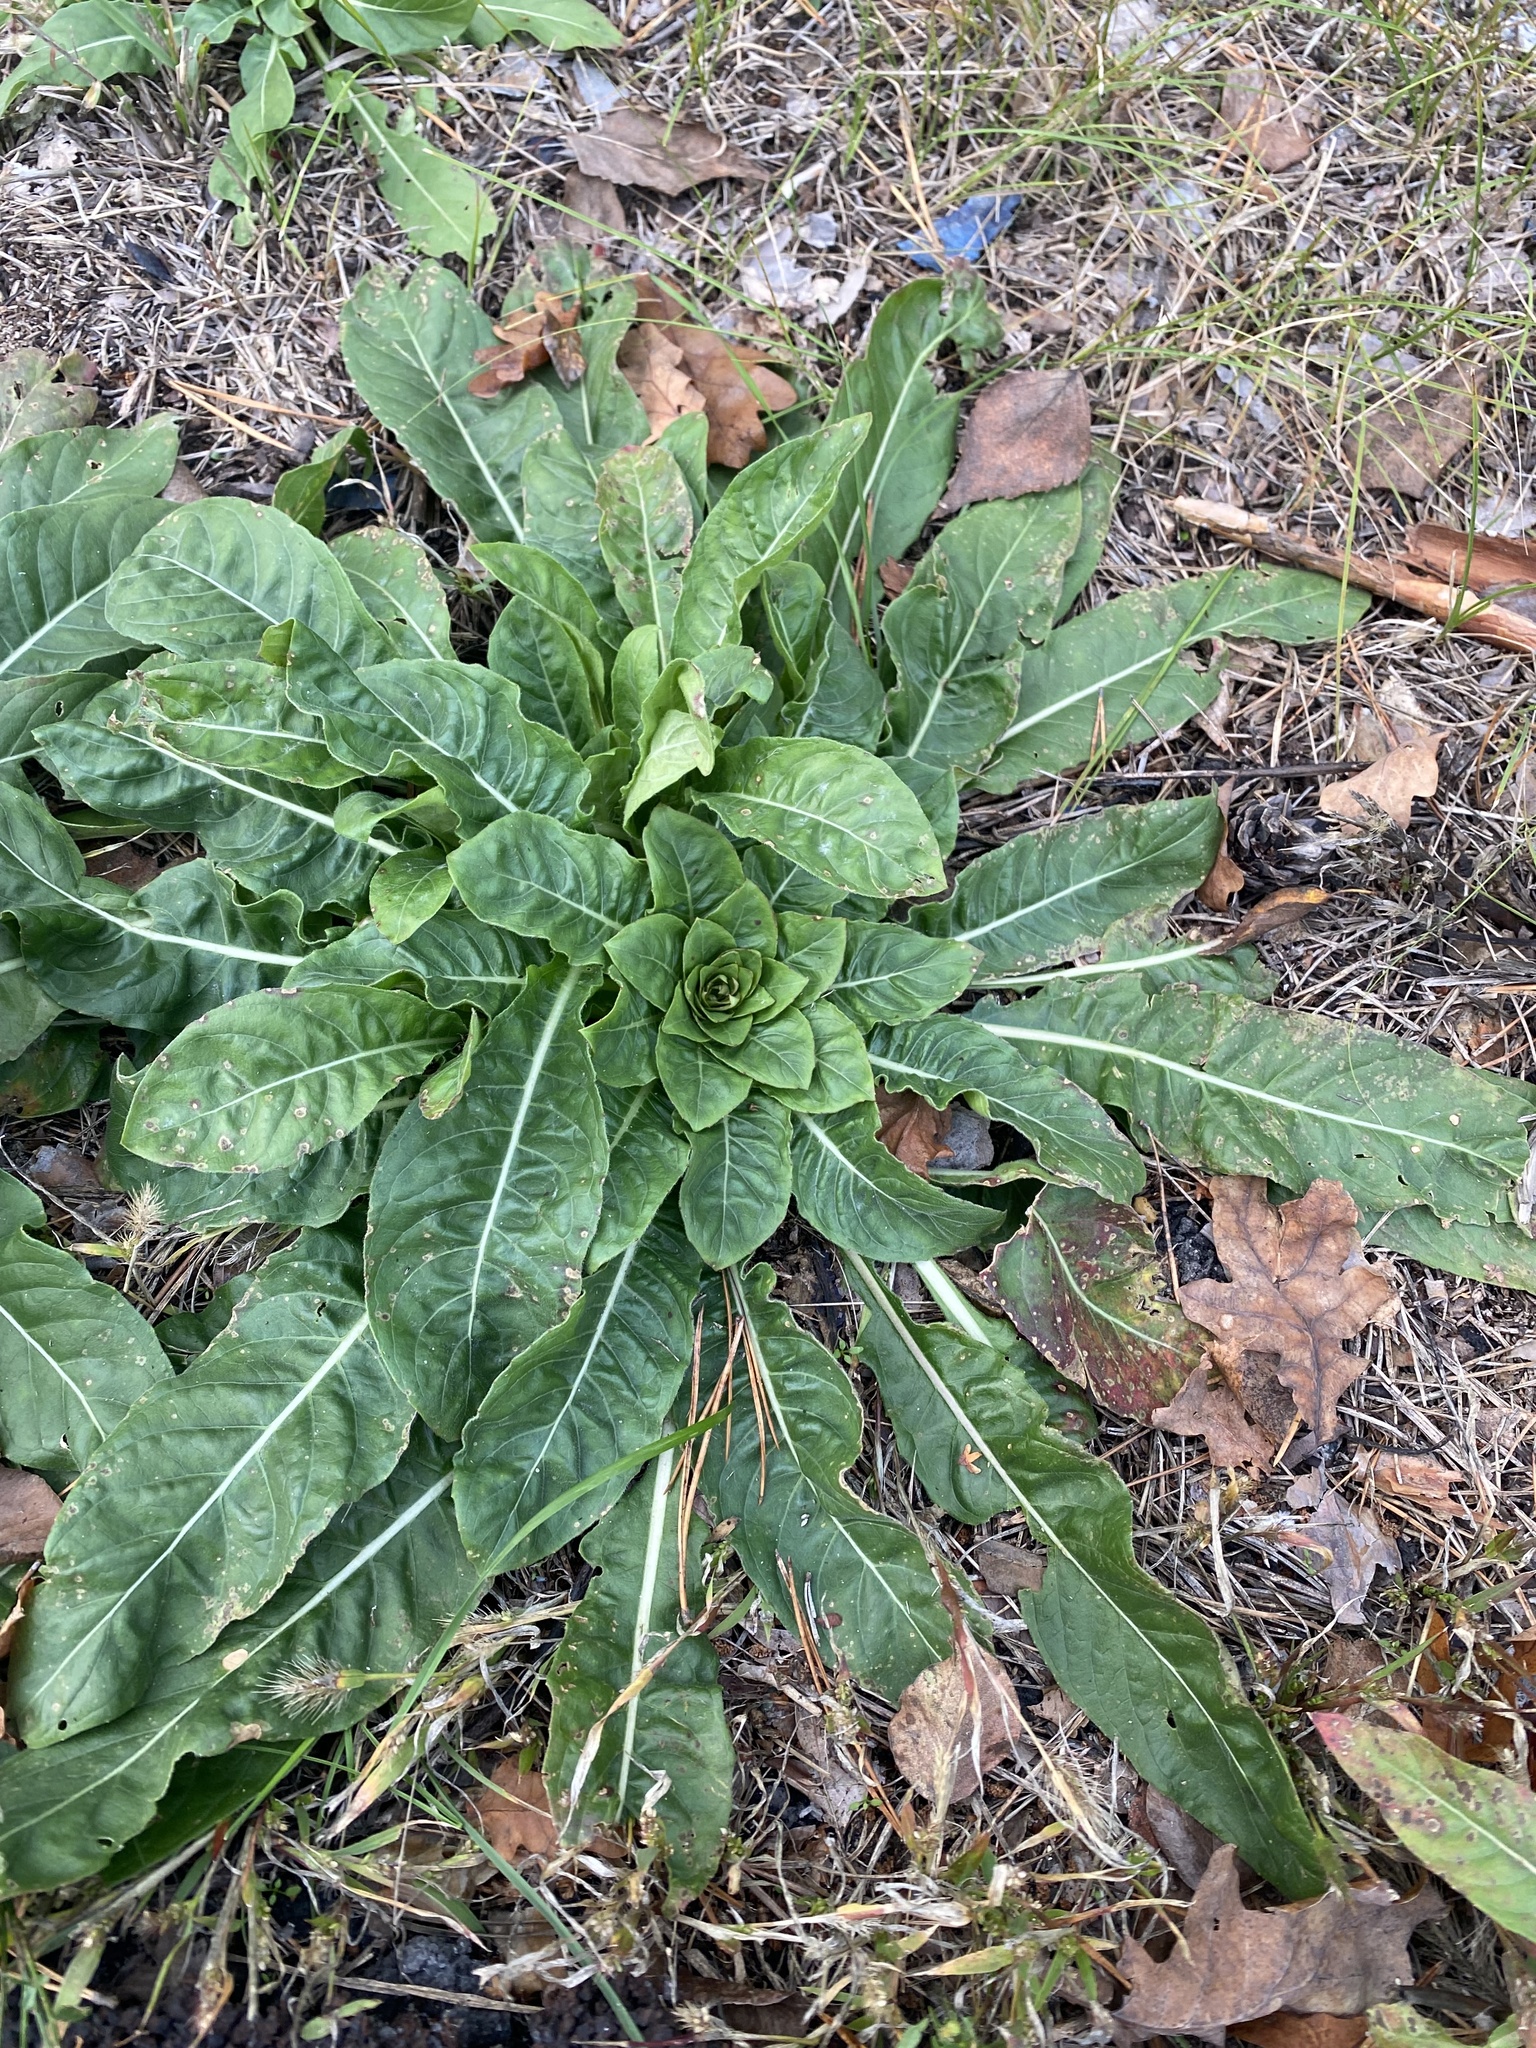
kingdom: Plantae
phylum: Tracheophyta
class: Magnoliopsida
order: Myrtales
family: Onagraceae
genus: Oenothera
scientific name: Oenothera
